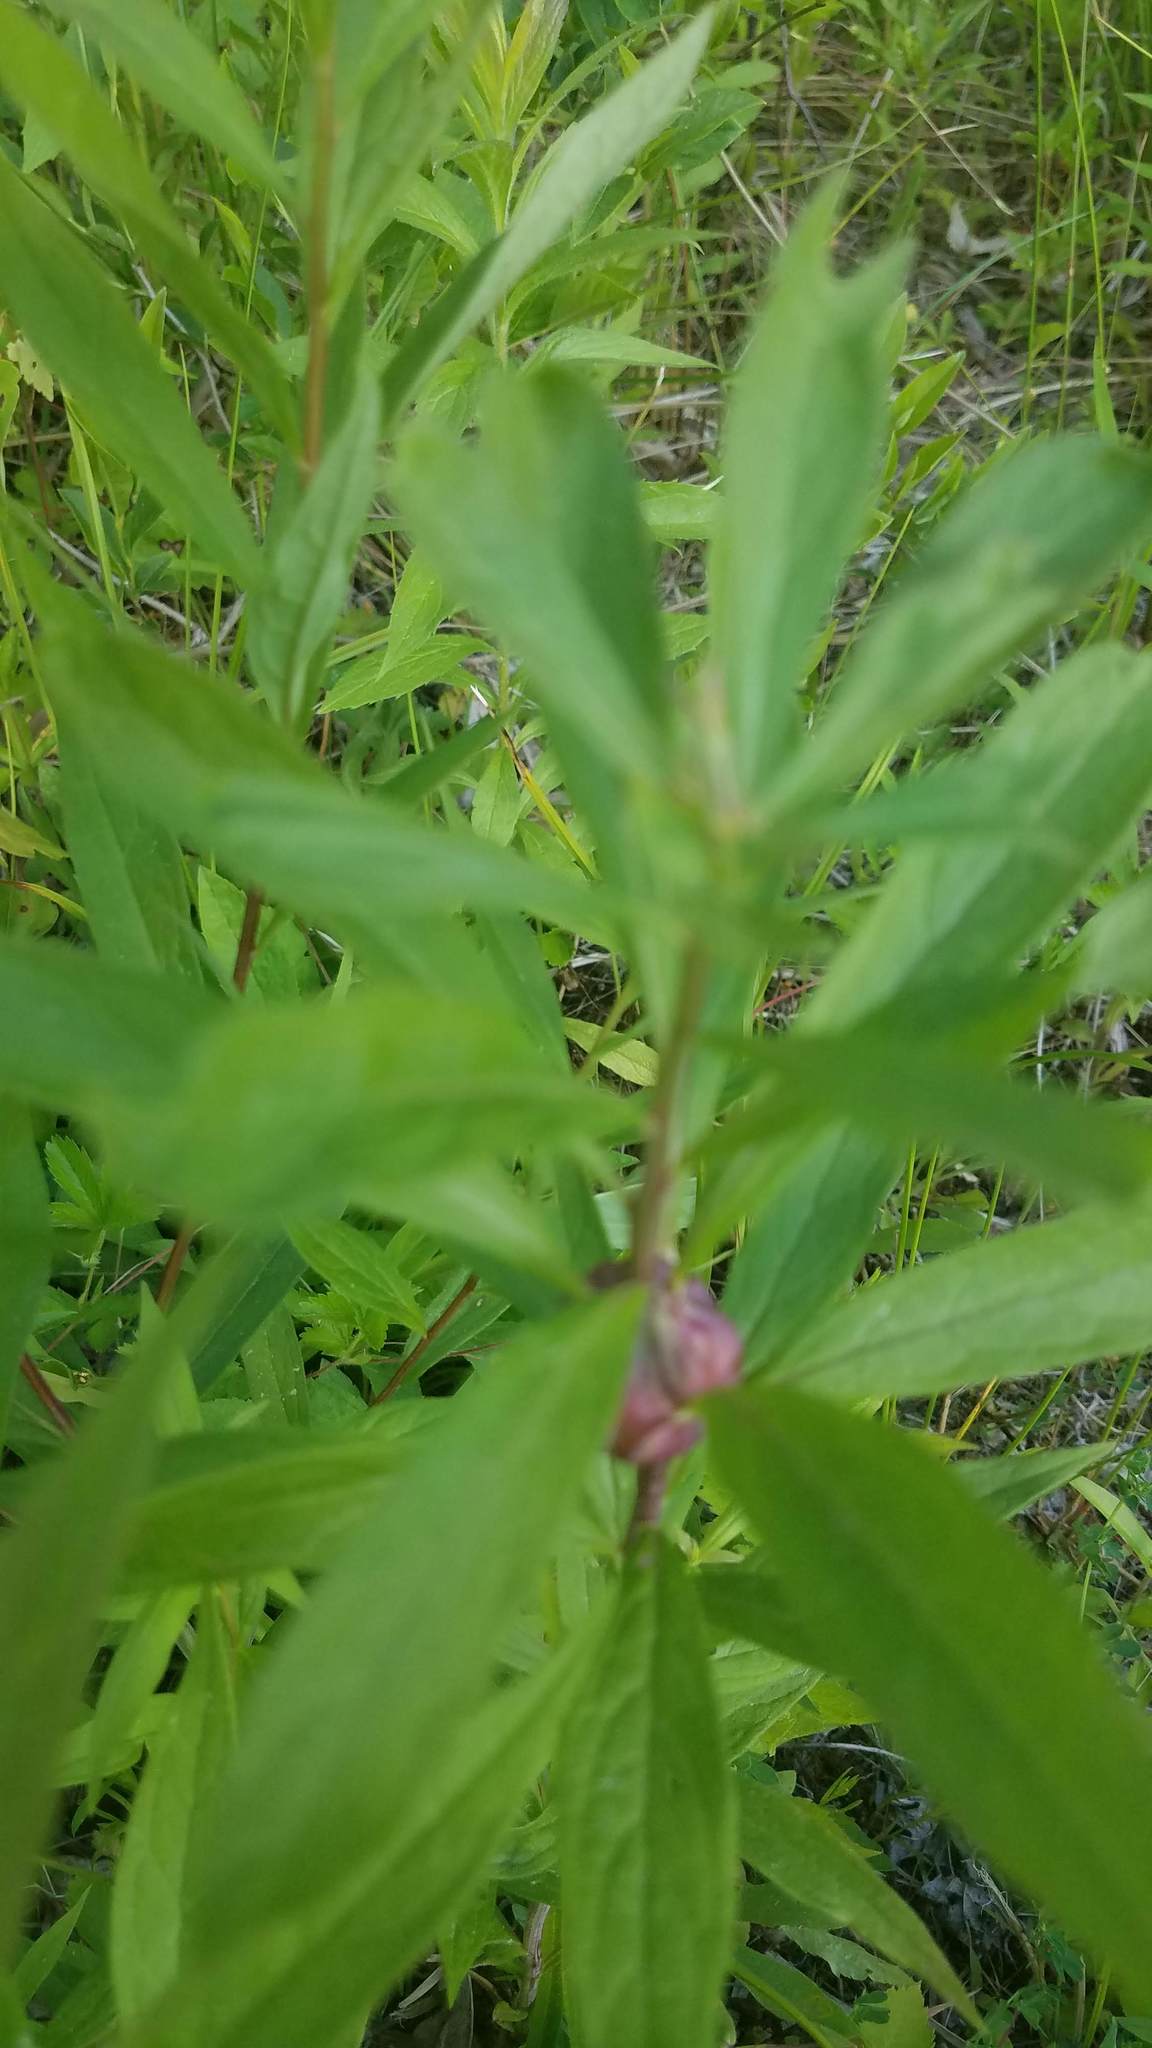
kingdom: Animalia
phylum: Arthropoda
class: Insecta
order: Diptera
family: Tephritidae
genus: Eurosta
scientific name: Eurosta solidaginis
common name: Goldenrod gall fly
